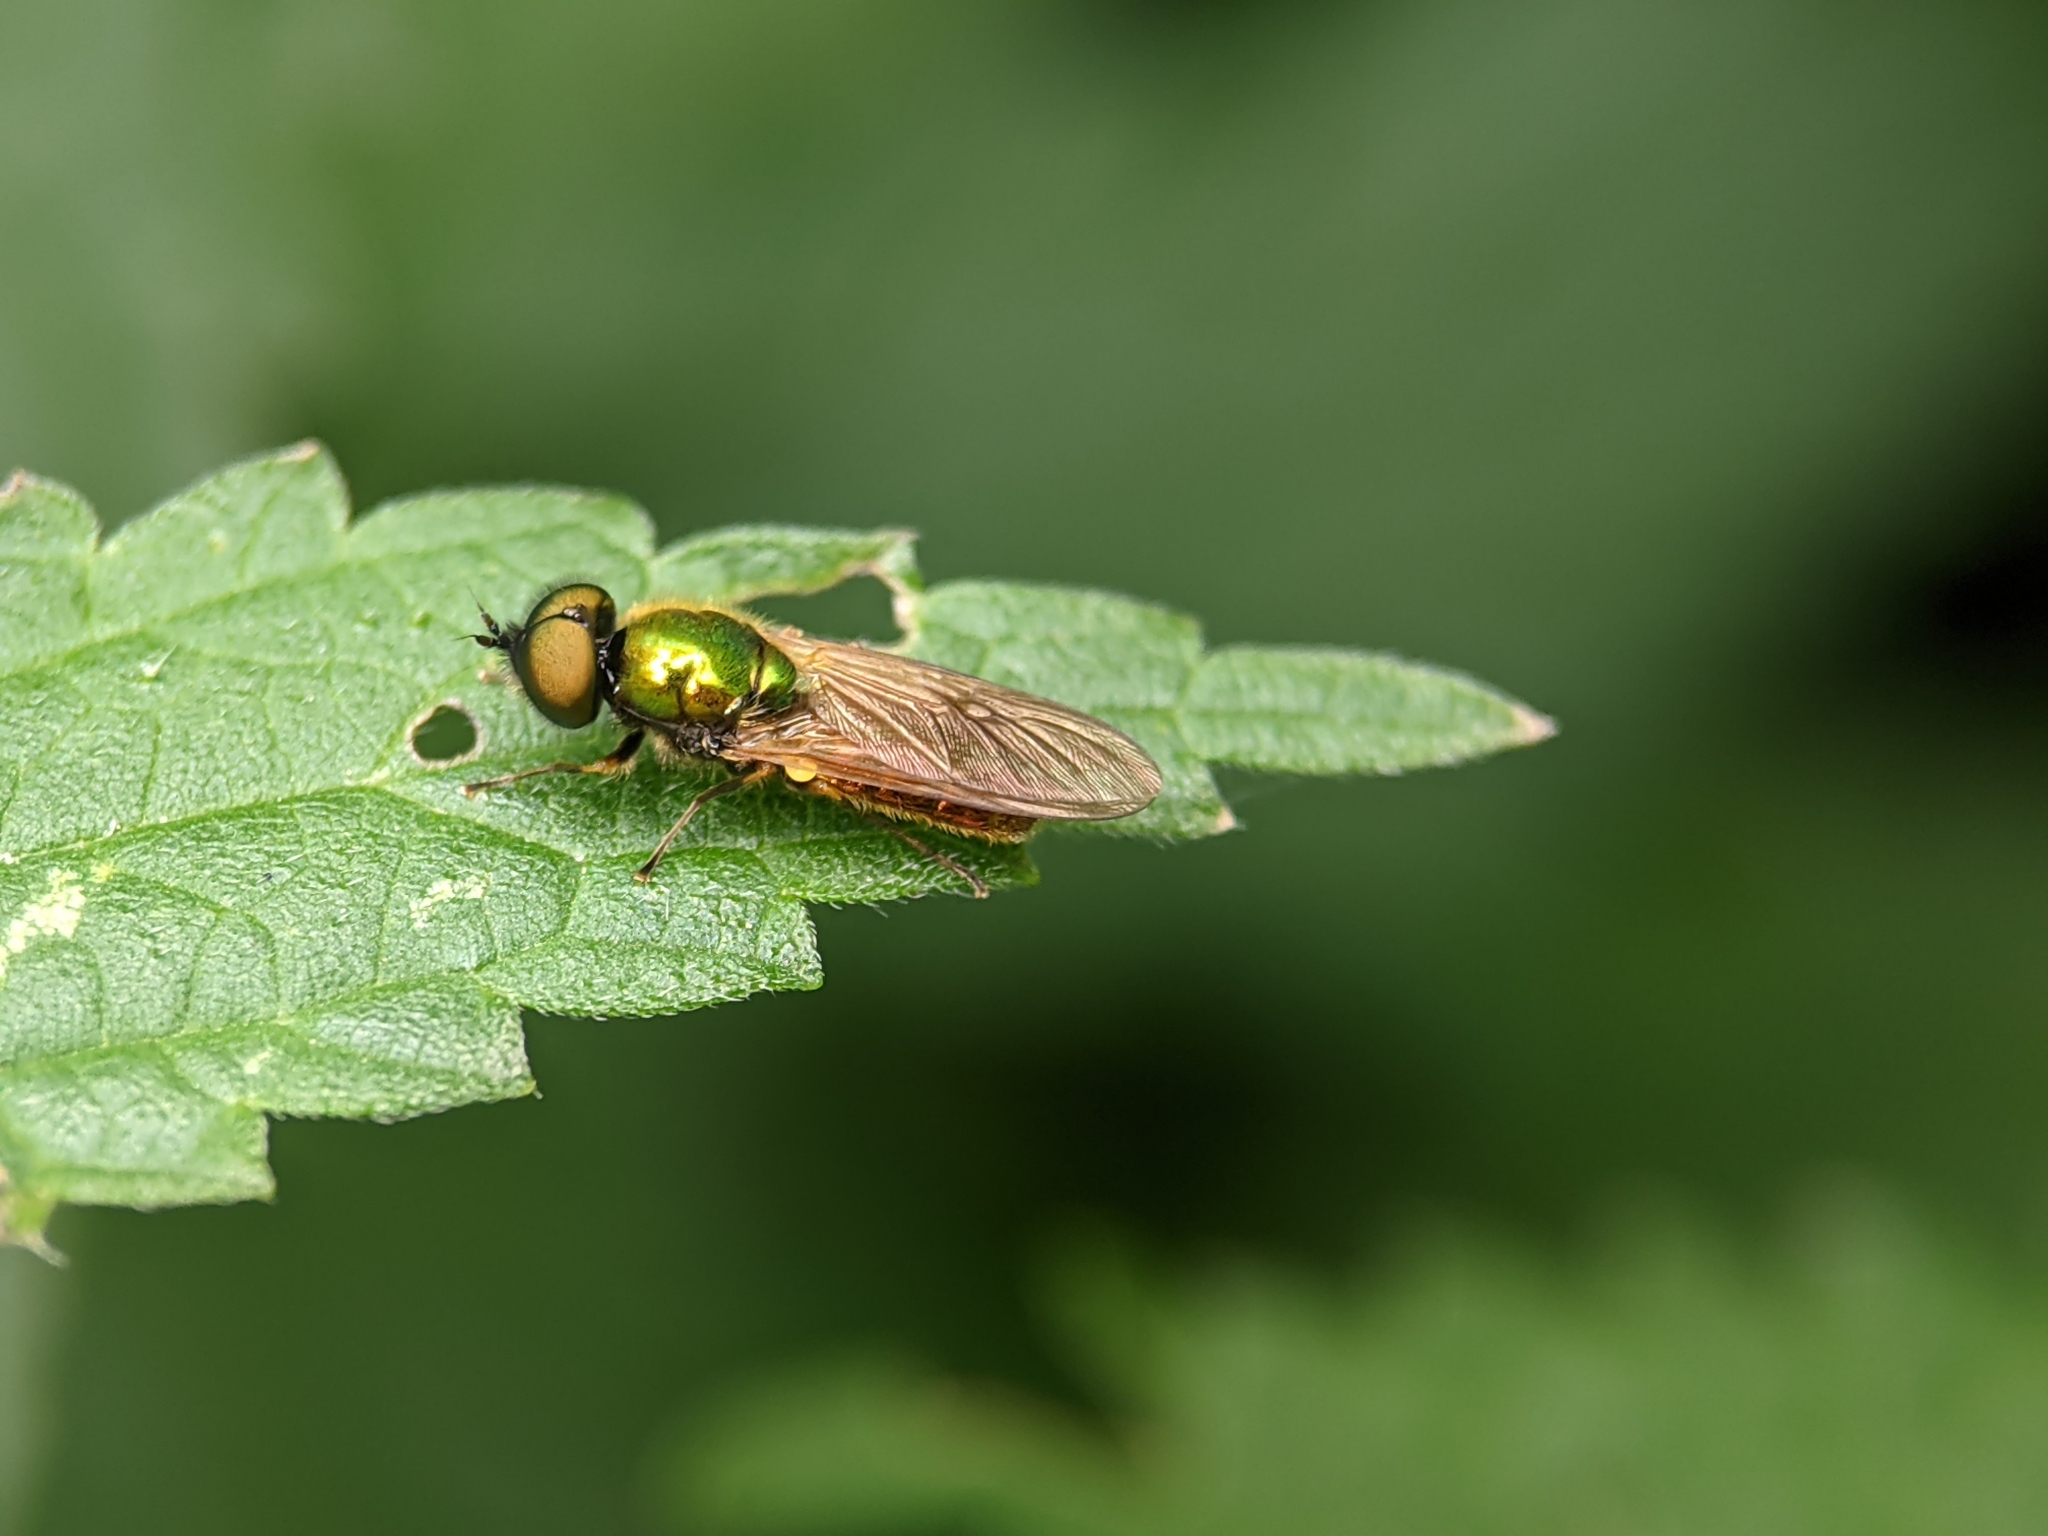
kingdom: Animalia
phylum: Arthropoda
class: Insecta
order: Diptera
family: Stratiomyidae
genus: Chloromyia
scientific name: Chloromyia formosa
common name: Soldier fly
